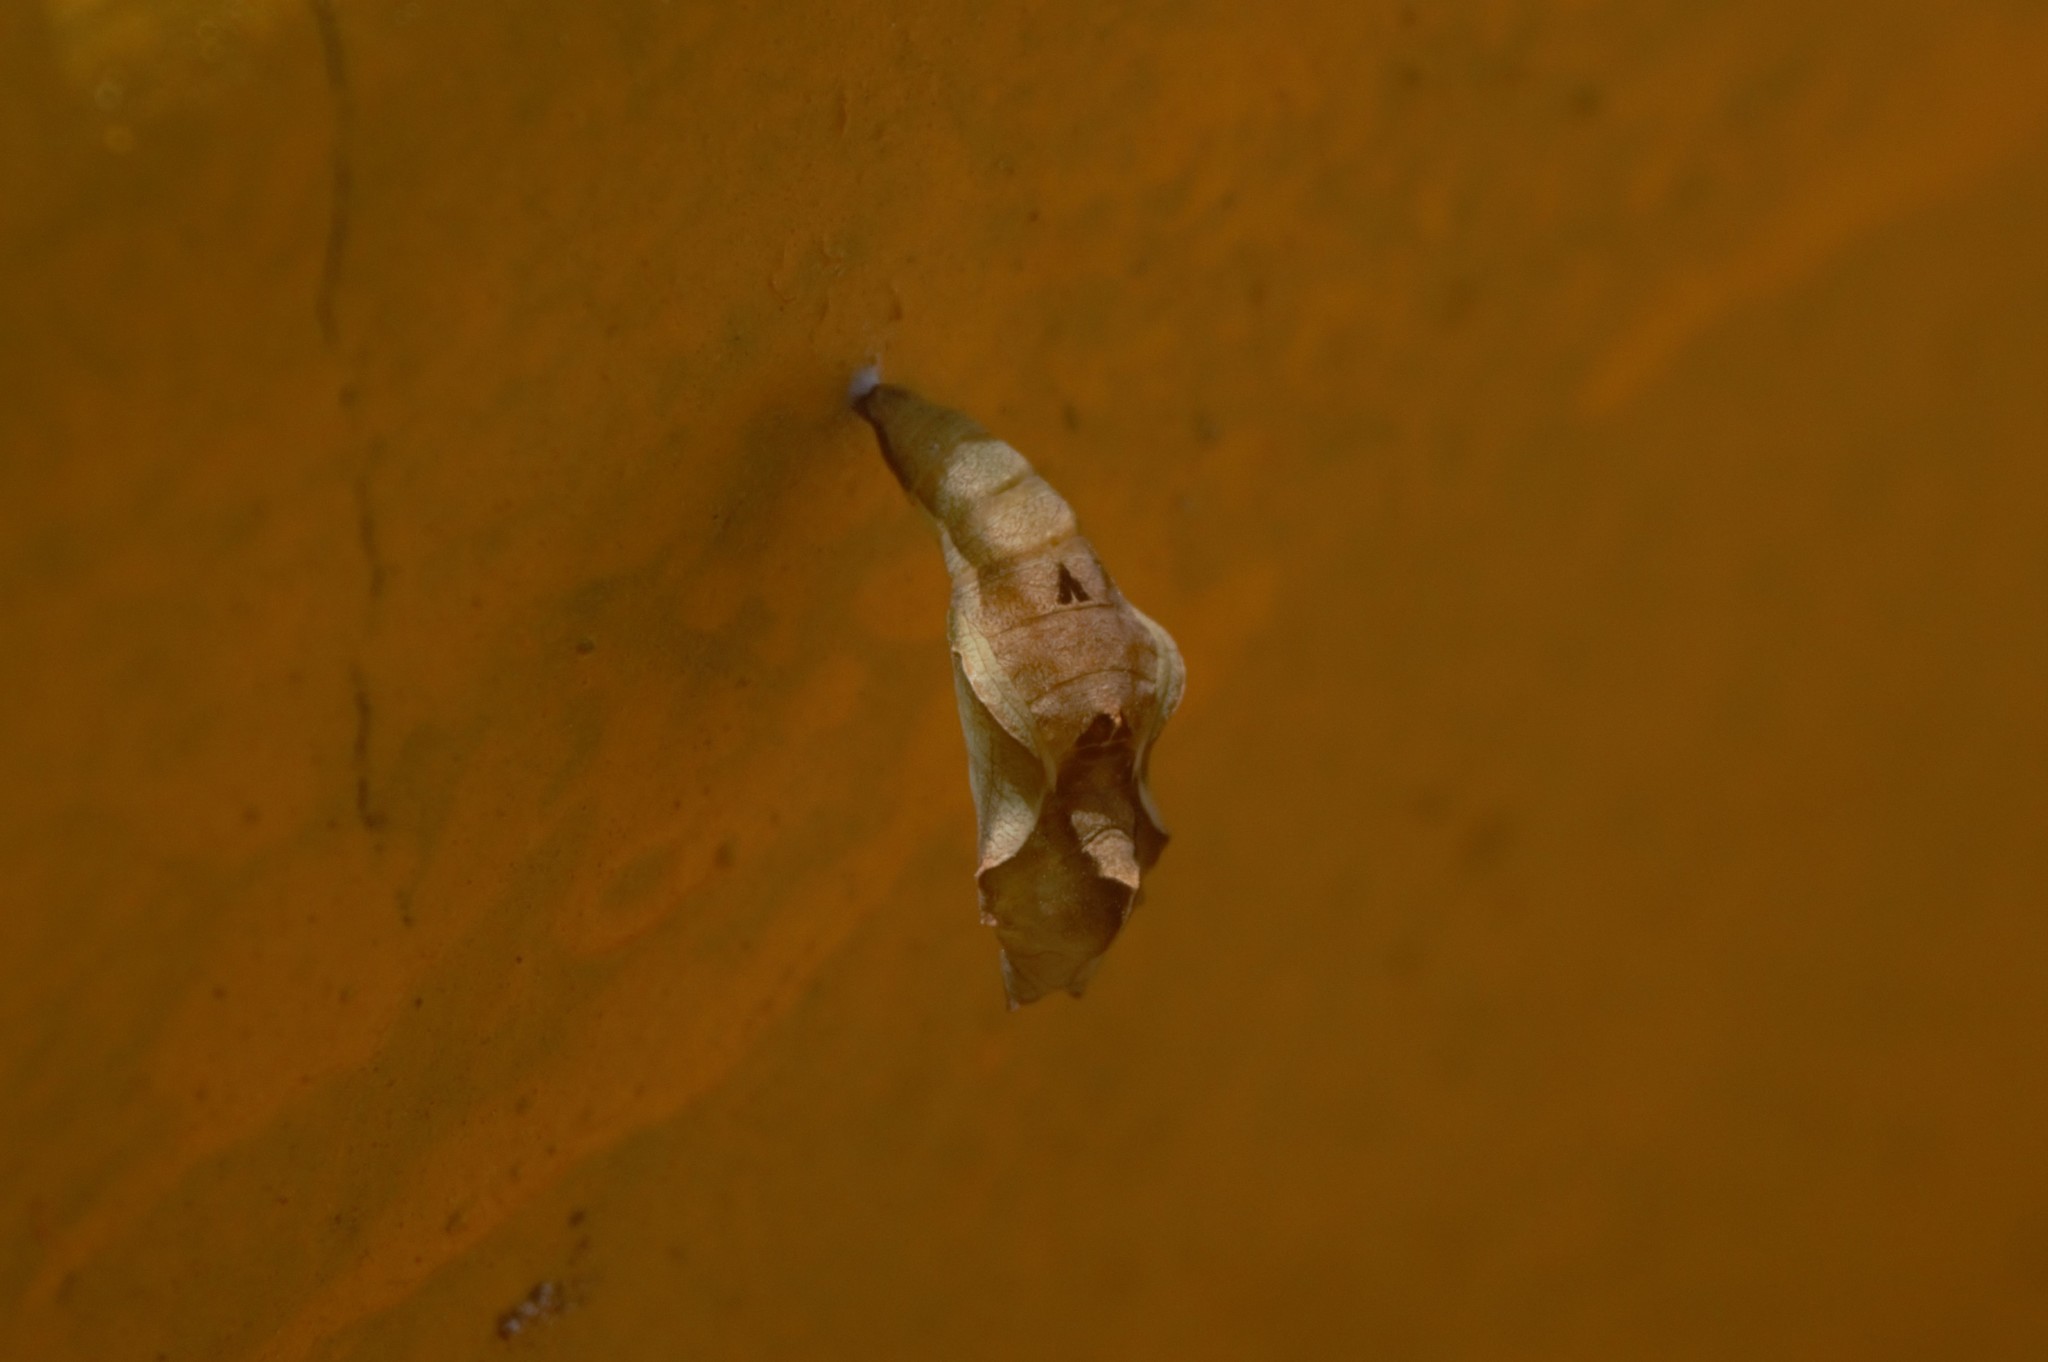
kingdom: Animalia
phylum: Arthropoda
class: Insecta
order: Lepidoptera
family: Nymphalidae
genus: Ariadne
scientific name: Ariadne merione
